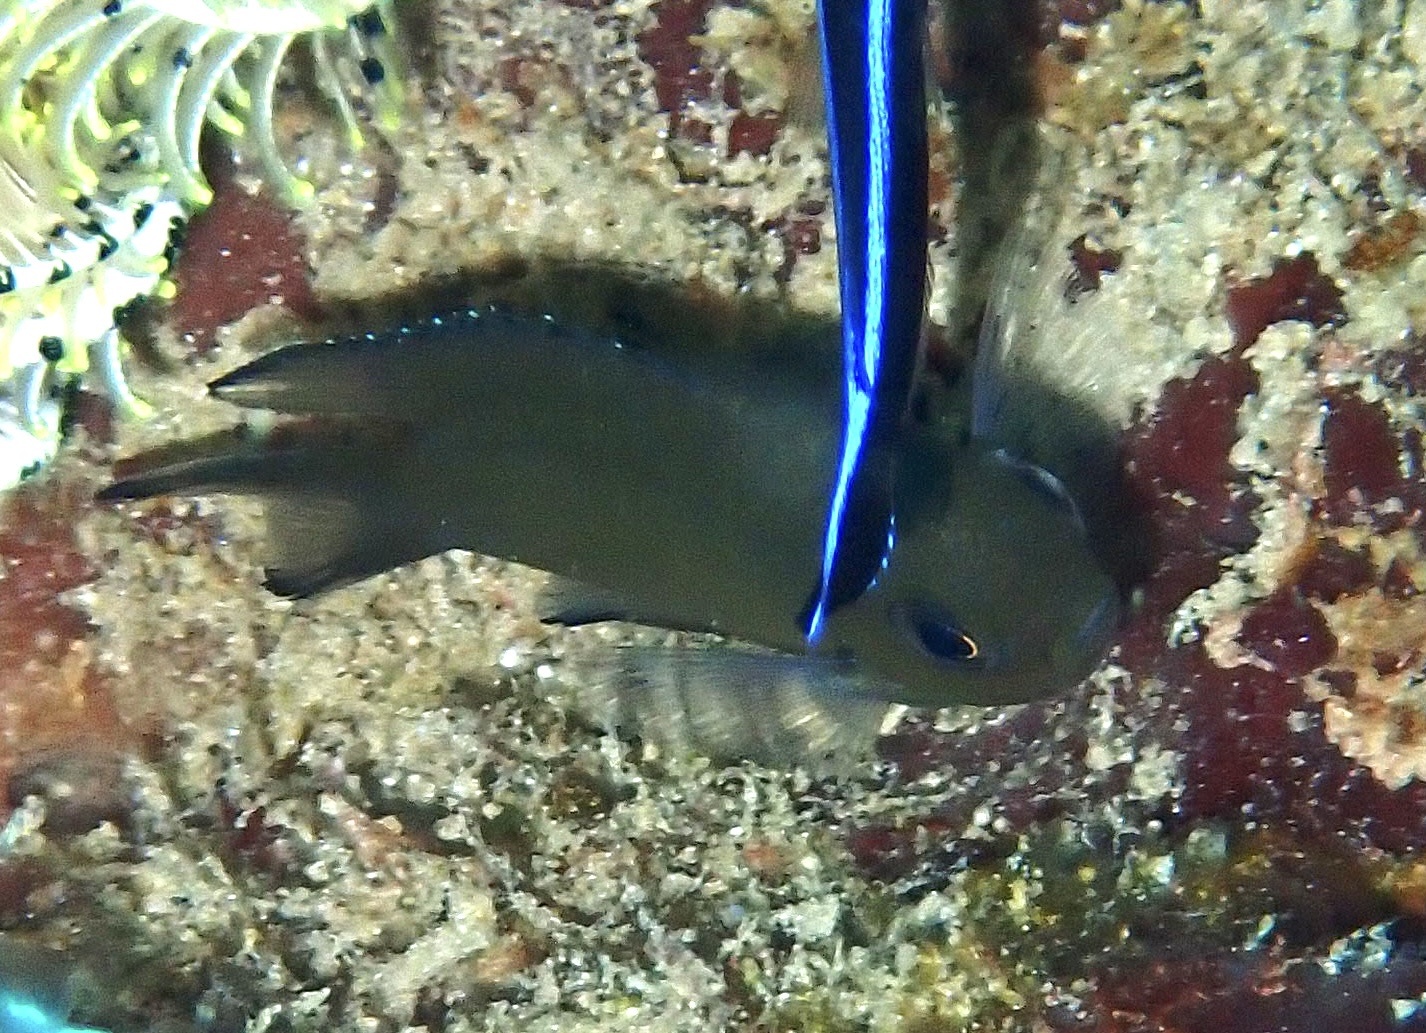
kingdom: Animalia
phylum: Chordata
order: Perciformes
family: Pomacentridae
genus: Chromis
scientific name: Chromis lepidolepis
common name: Scaly chromis
